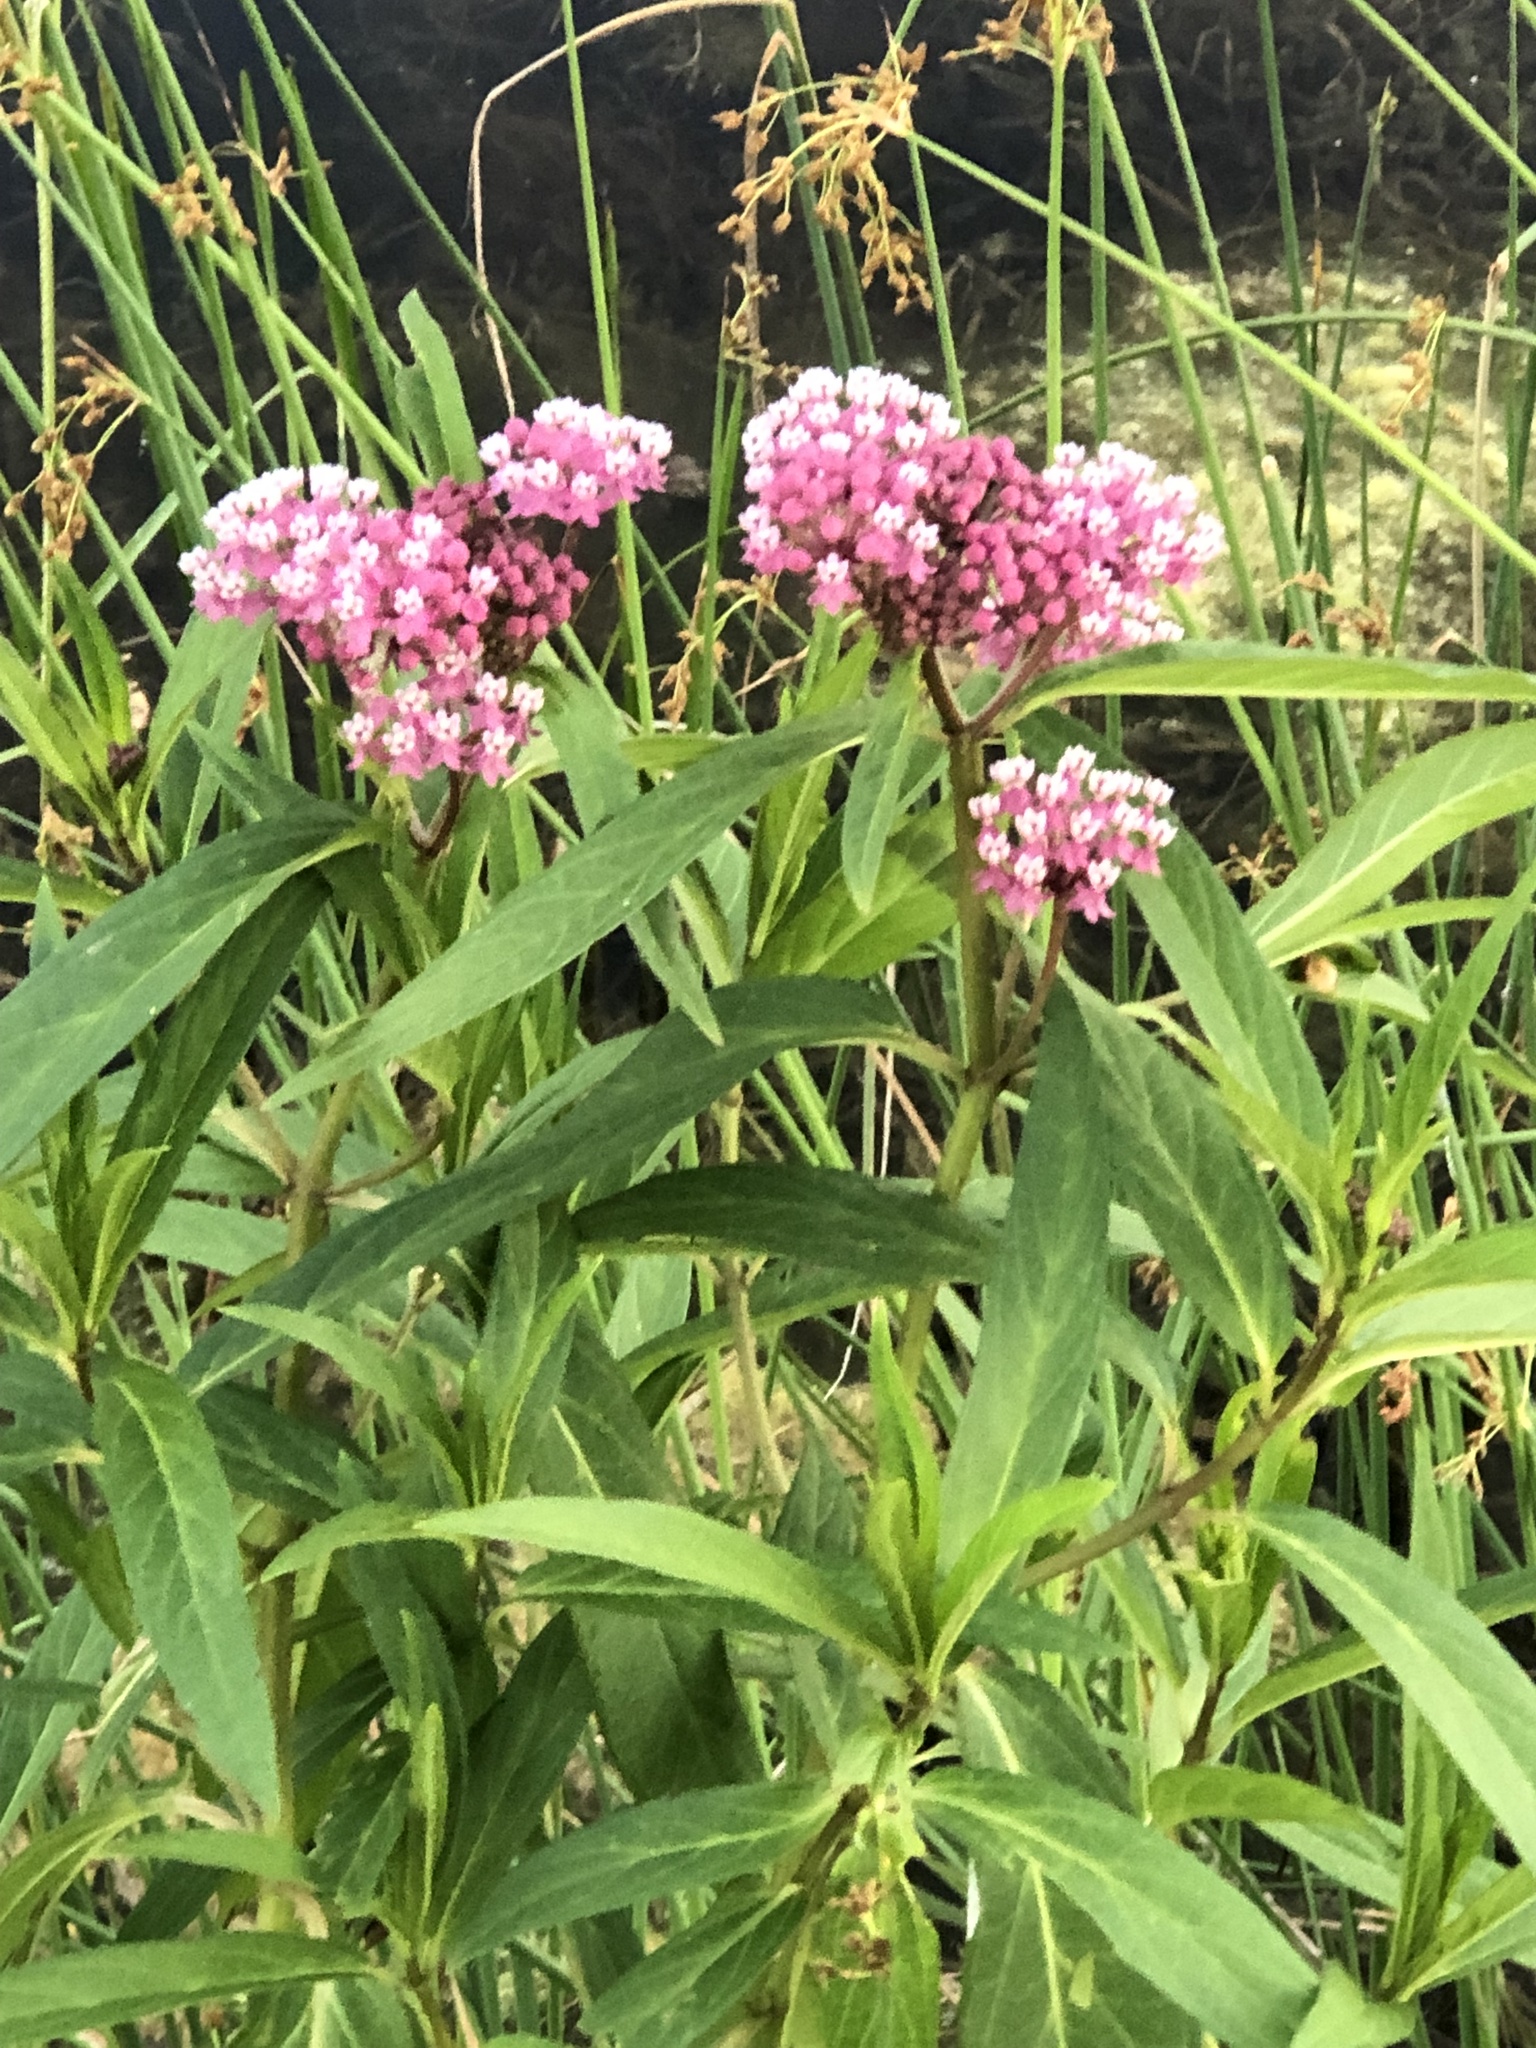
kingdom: Plantae
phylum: Tracheophyta
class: Magnoliopsida
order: Gentianales
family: Apocynaceae
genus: Asclepias
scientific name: Asclepias incarnata
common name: Swamp milkweed
